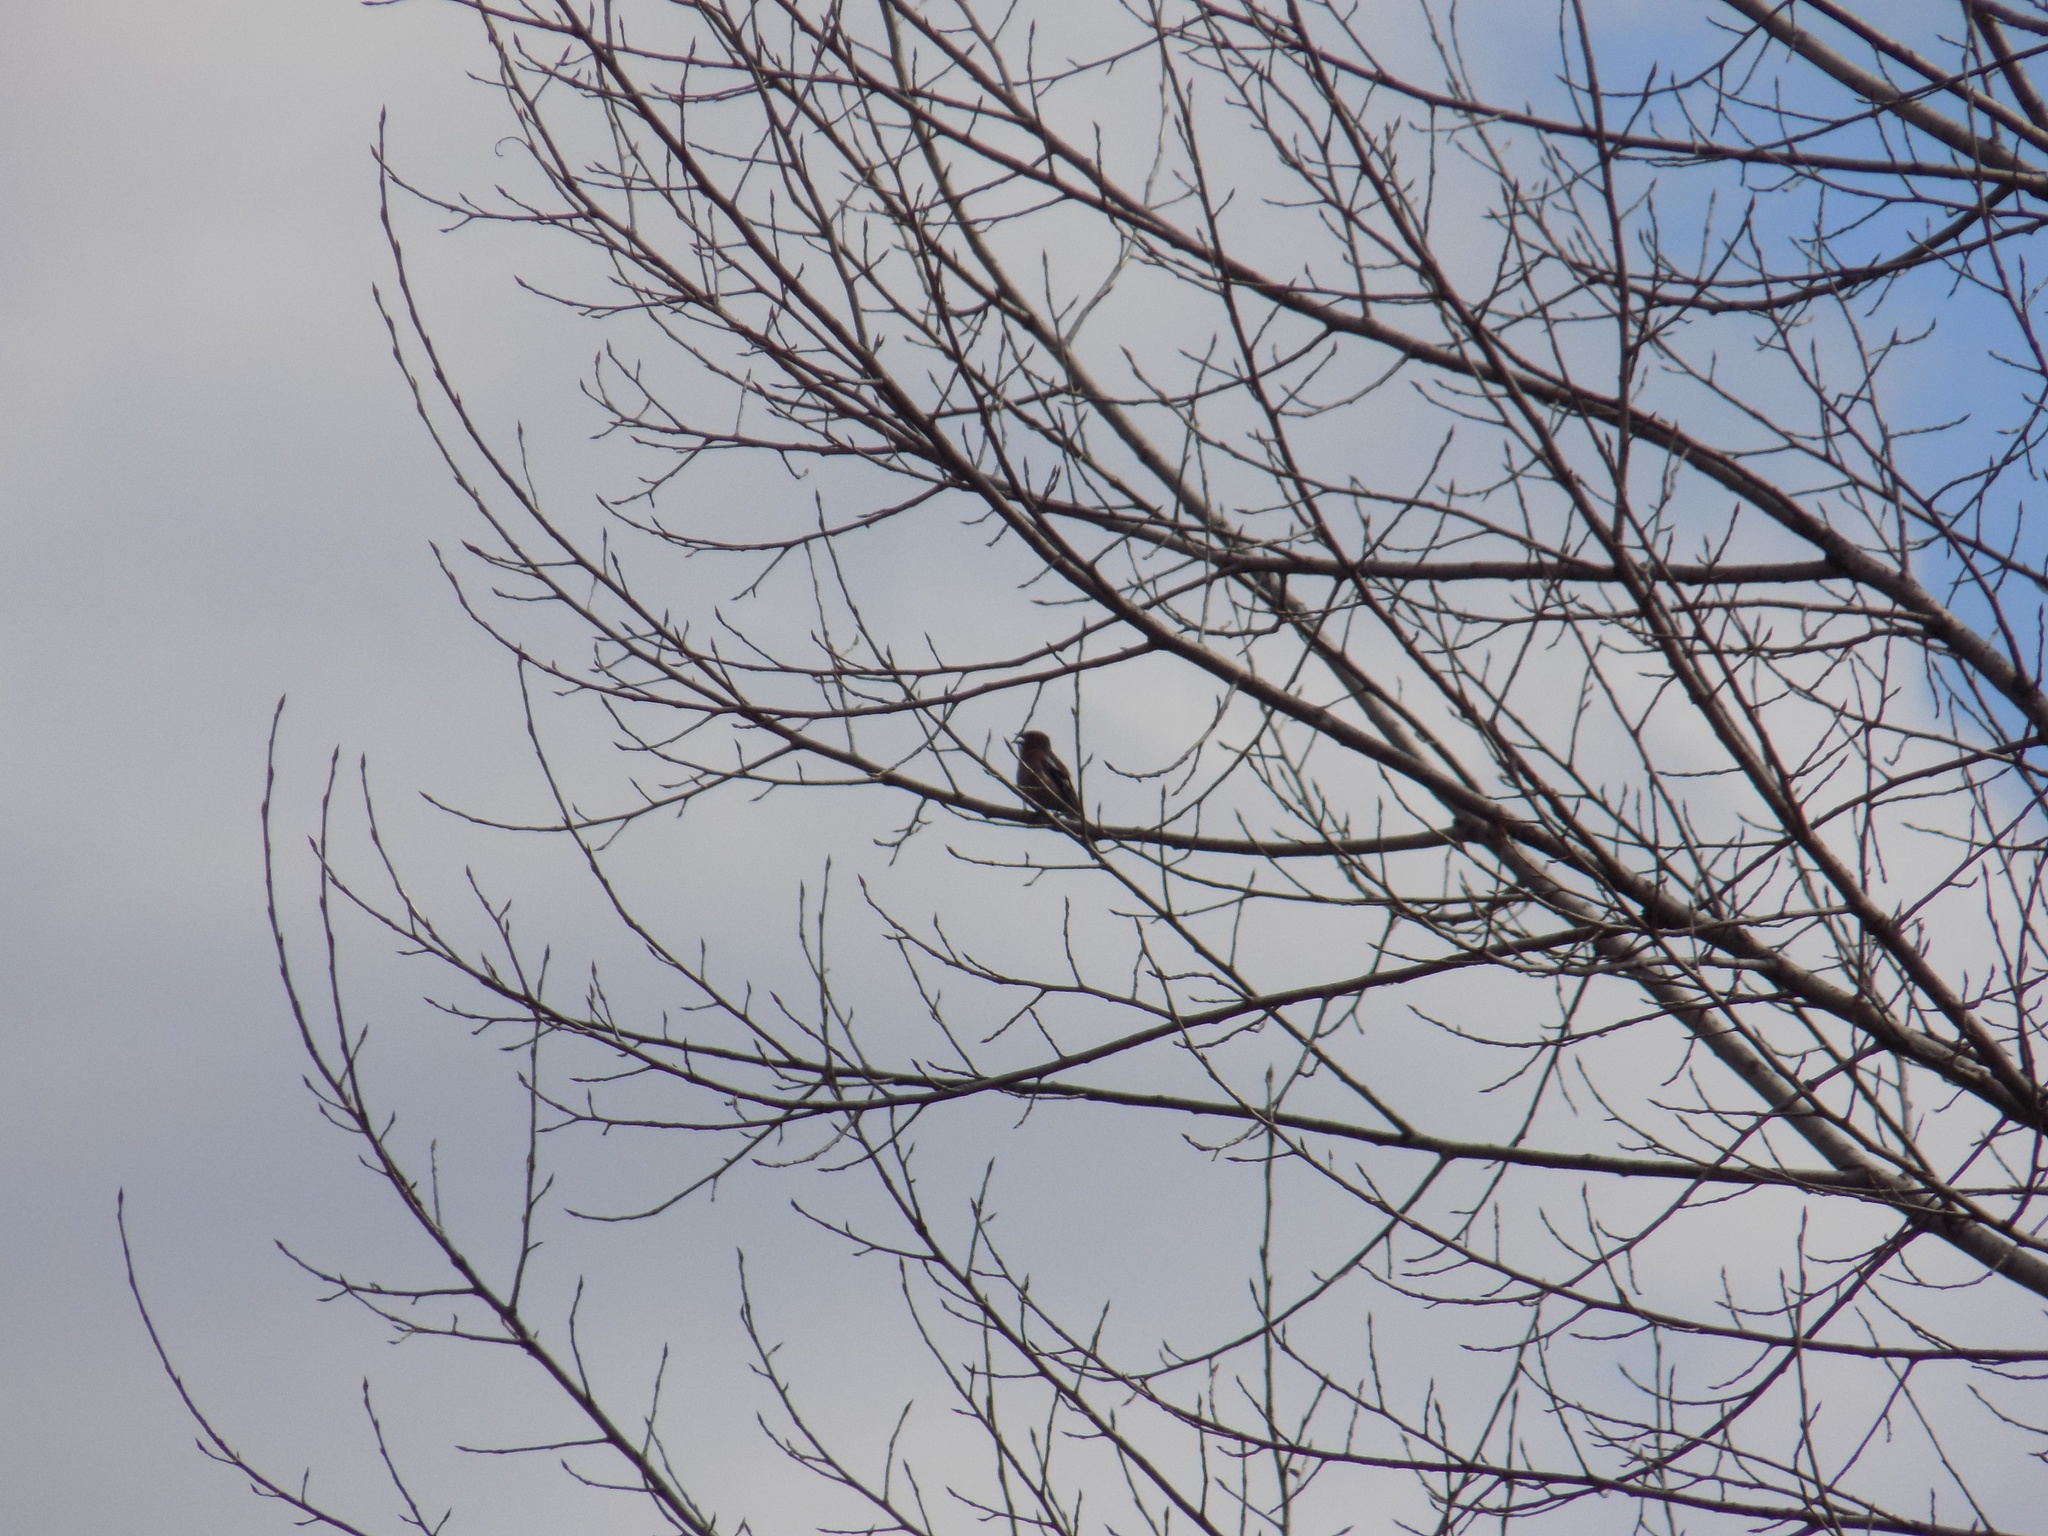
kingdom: Animalia
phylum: Chordata
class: Aves
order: Passeriformes
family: Fringillidae
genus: Fringilla
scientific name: Fringilla coelebs
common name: Common chaffinch
